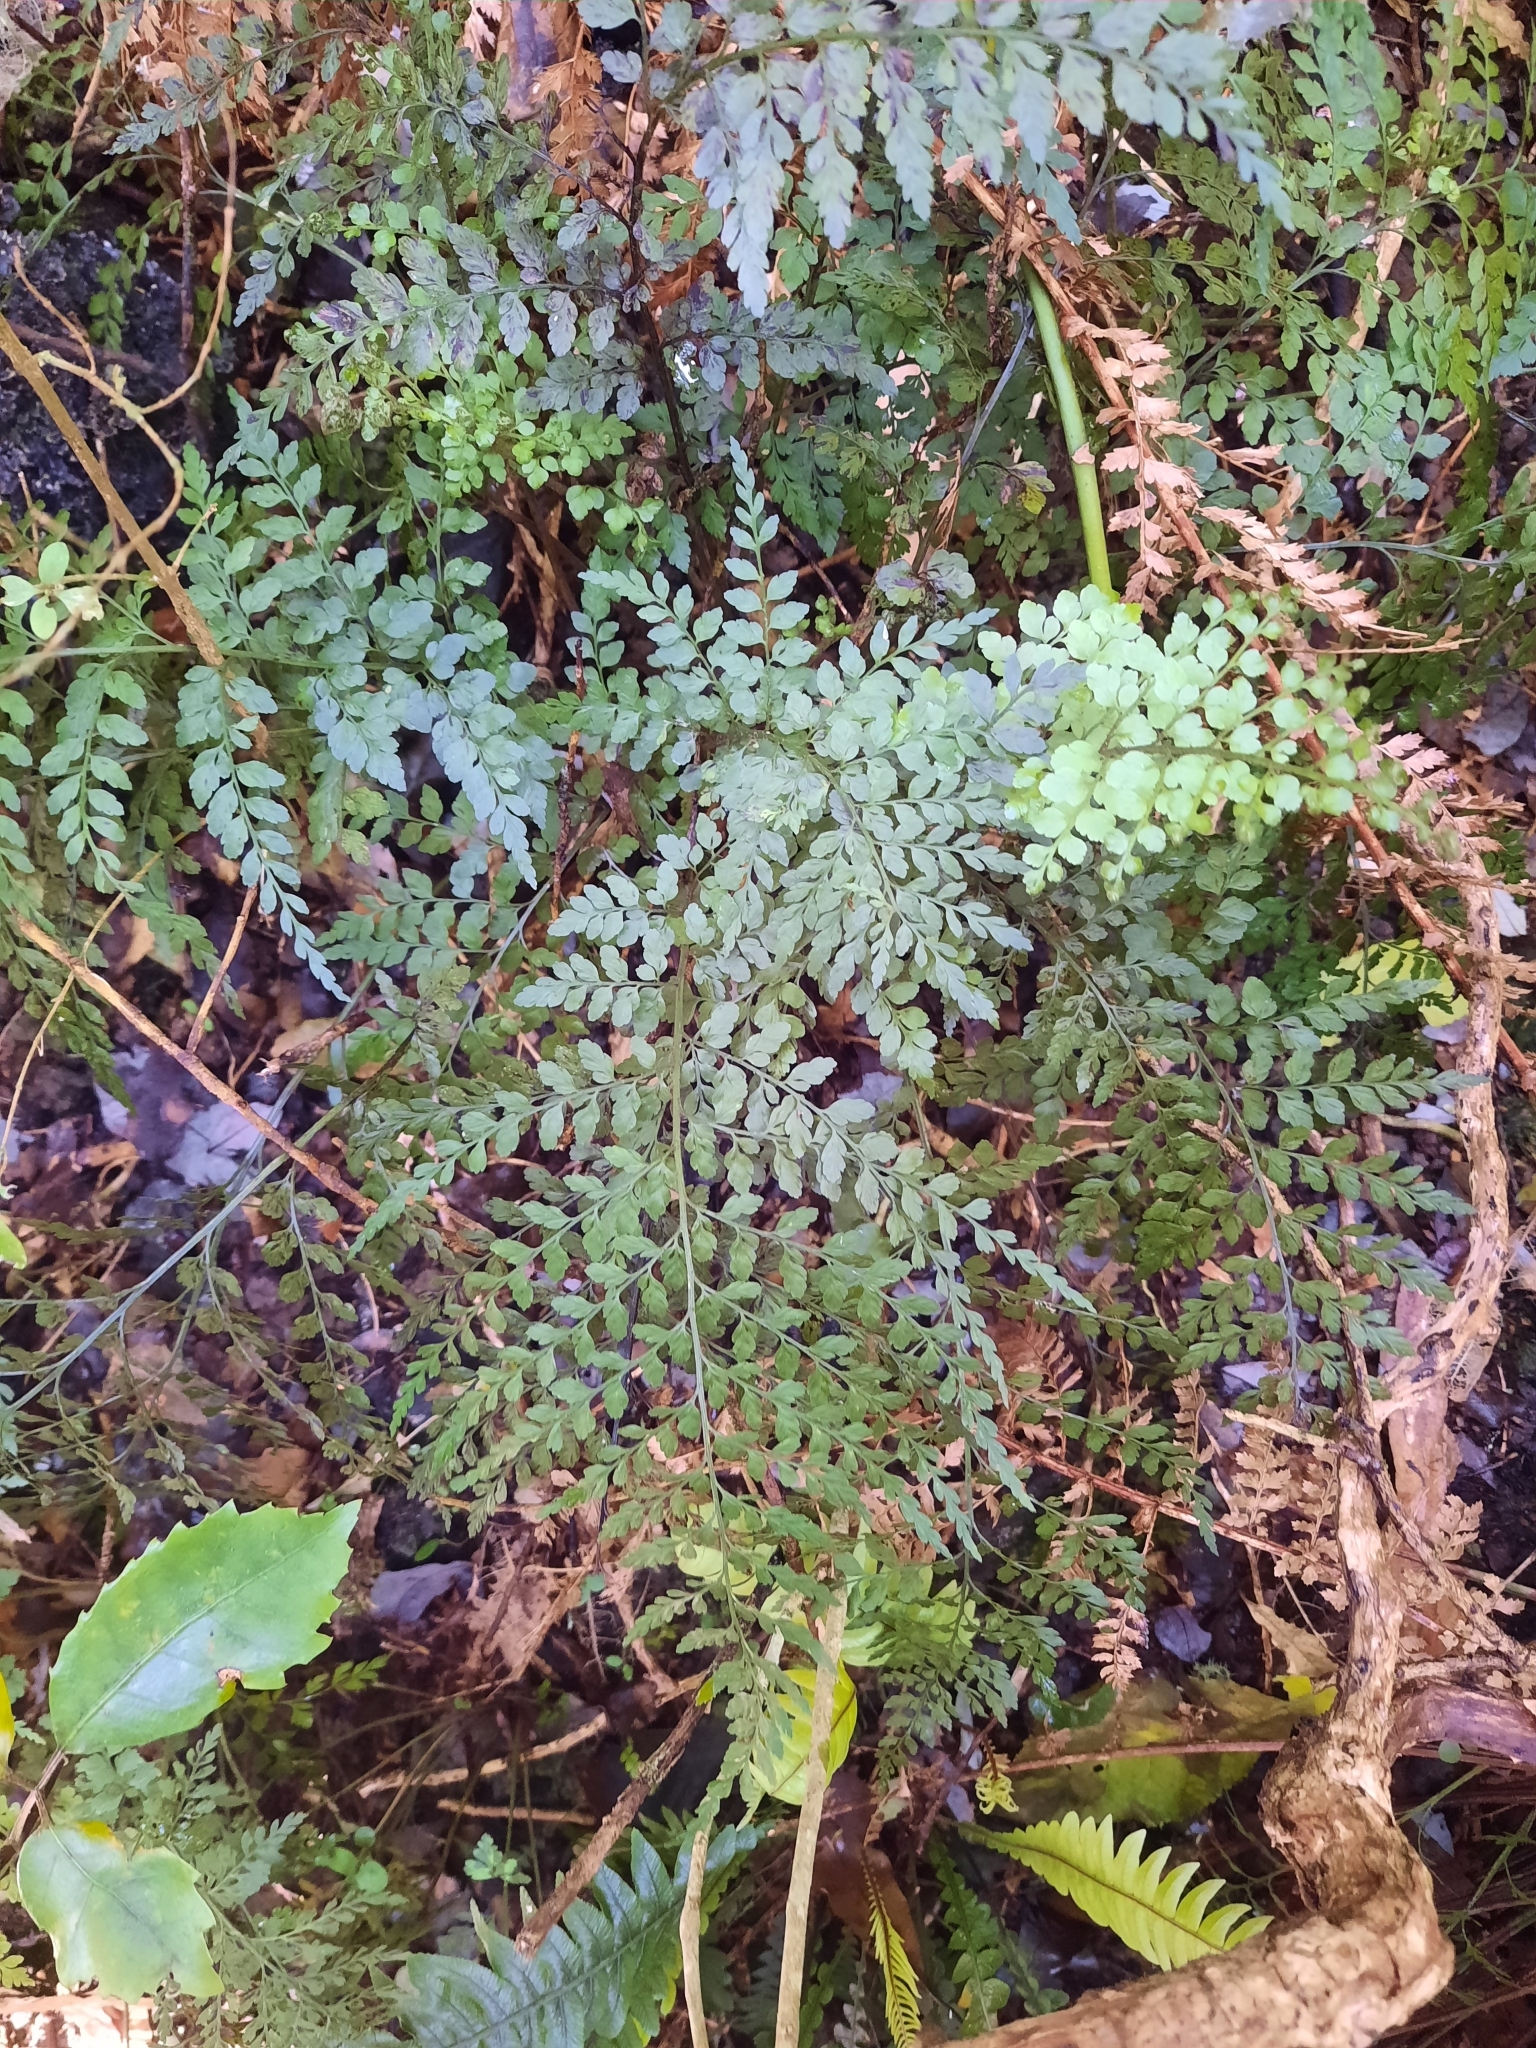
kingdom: Plantae
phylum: Tracheophyta
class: Polypodiopsida
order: Polypodiales
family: Aspleniaceae
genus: Asplenium
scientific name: Asplenium hookerianum
